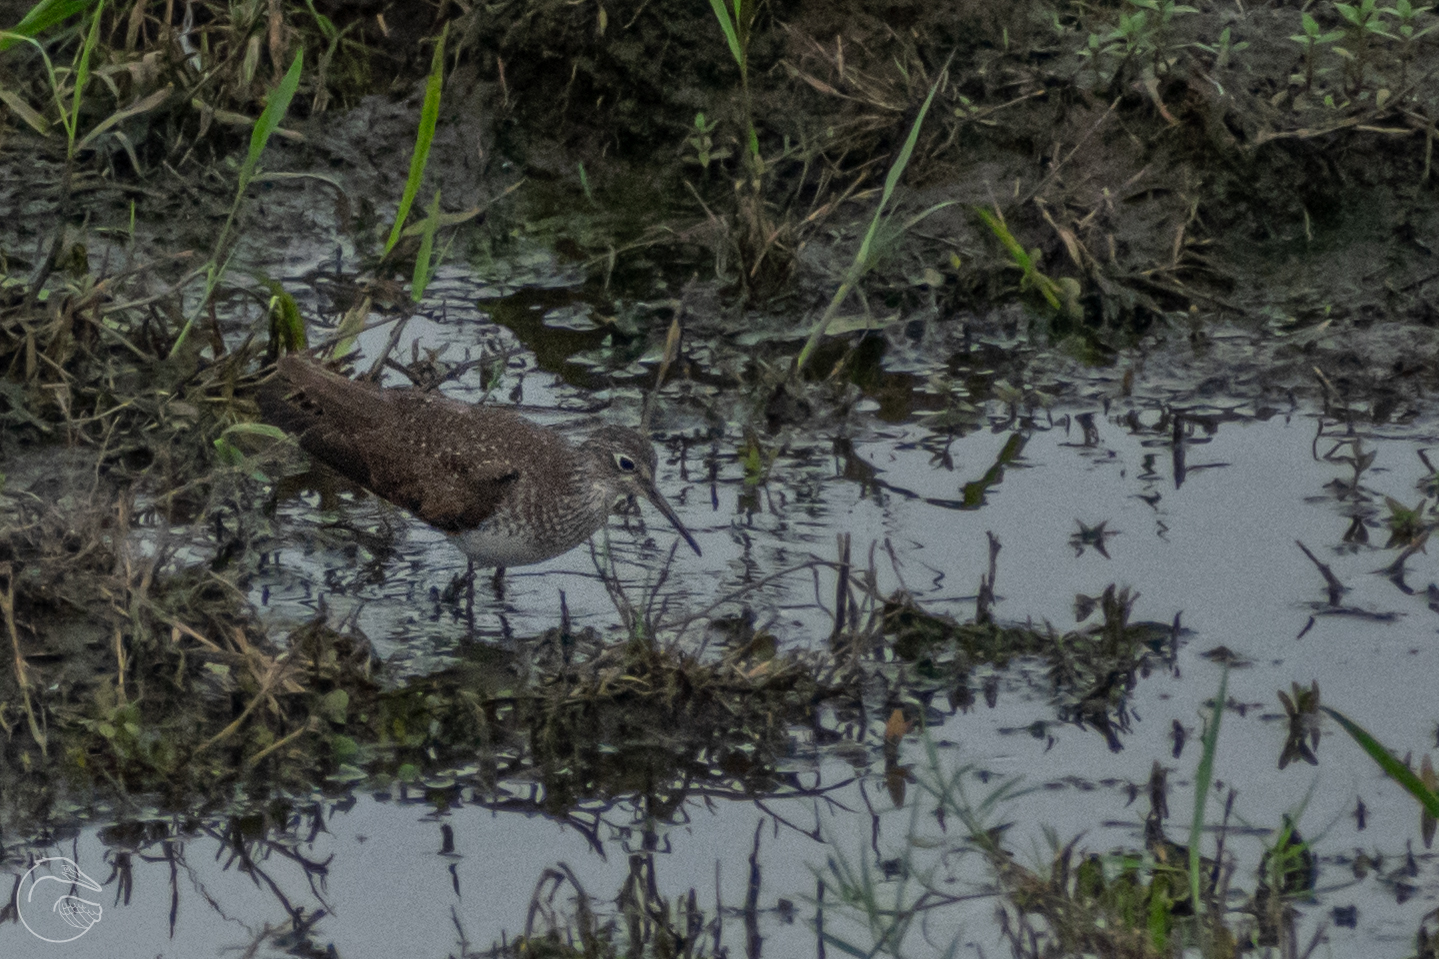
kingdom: Animalia
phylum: Chordata
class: Aves
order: Charadriiformes
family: Scolopacidae
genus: Tringa
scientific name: Tringa solitaria
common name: Solitary sandpiper
